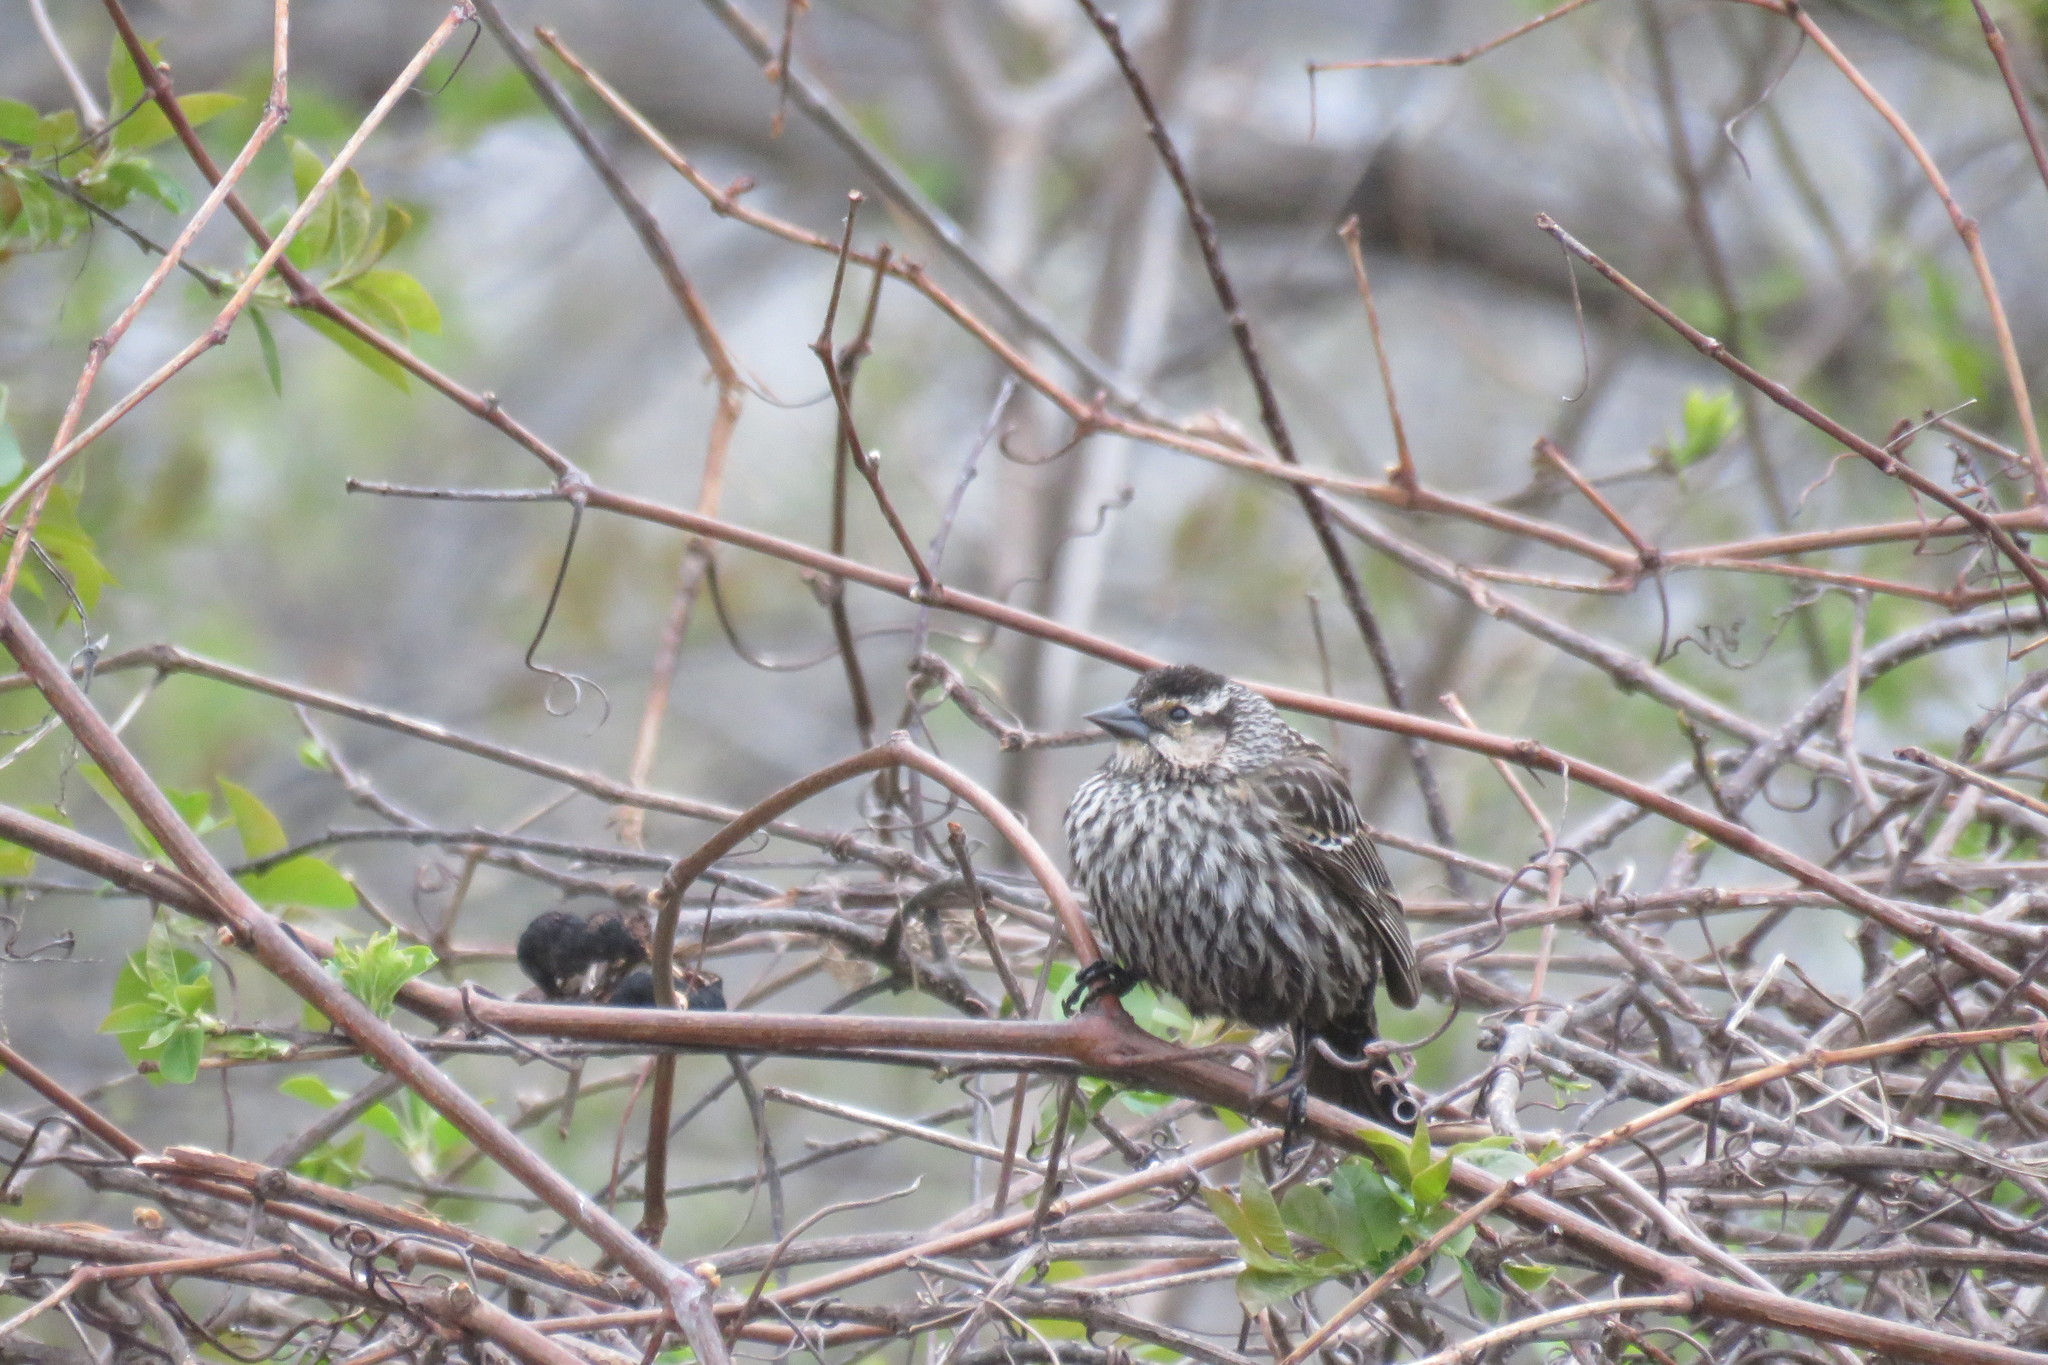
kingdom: Animalia
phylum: Chordata
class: Aves
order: Passeriformes
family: Icteridae
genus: Agelaius
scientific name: Agelaius phoeniceus
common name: Red-winged blackbird
